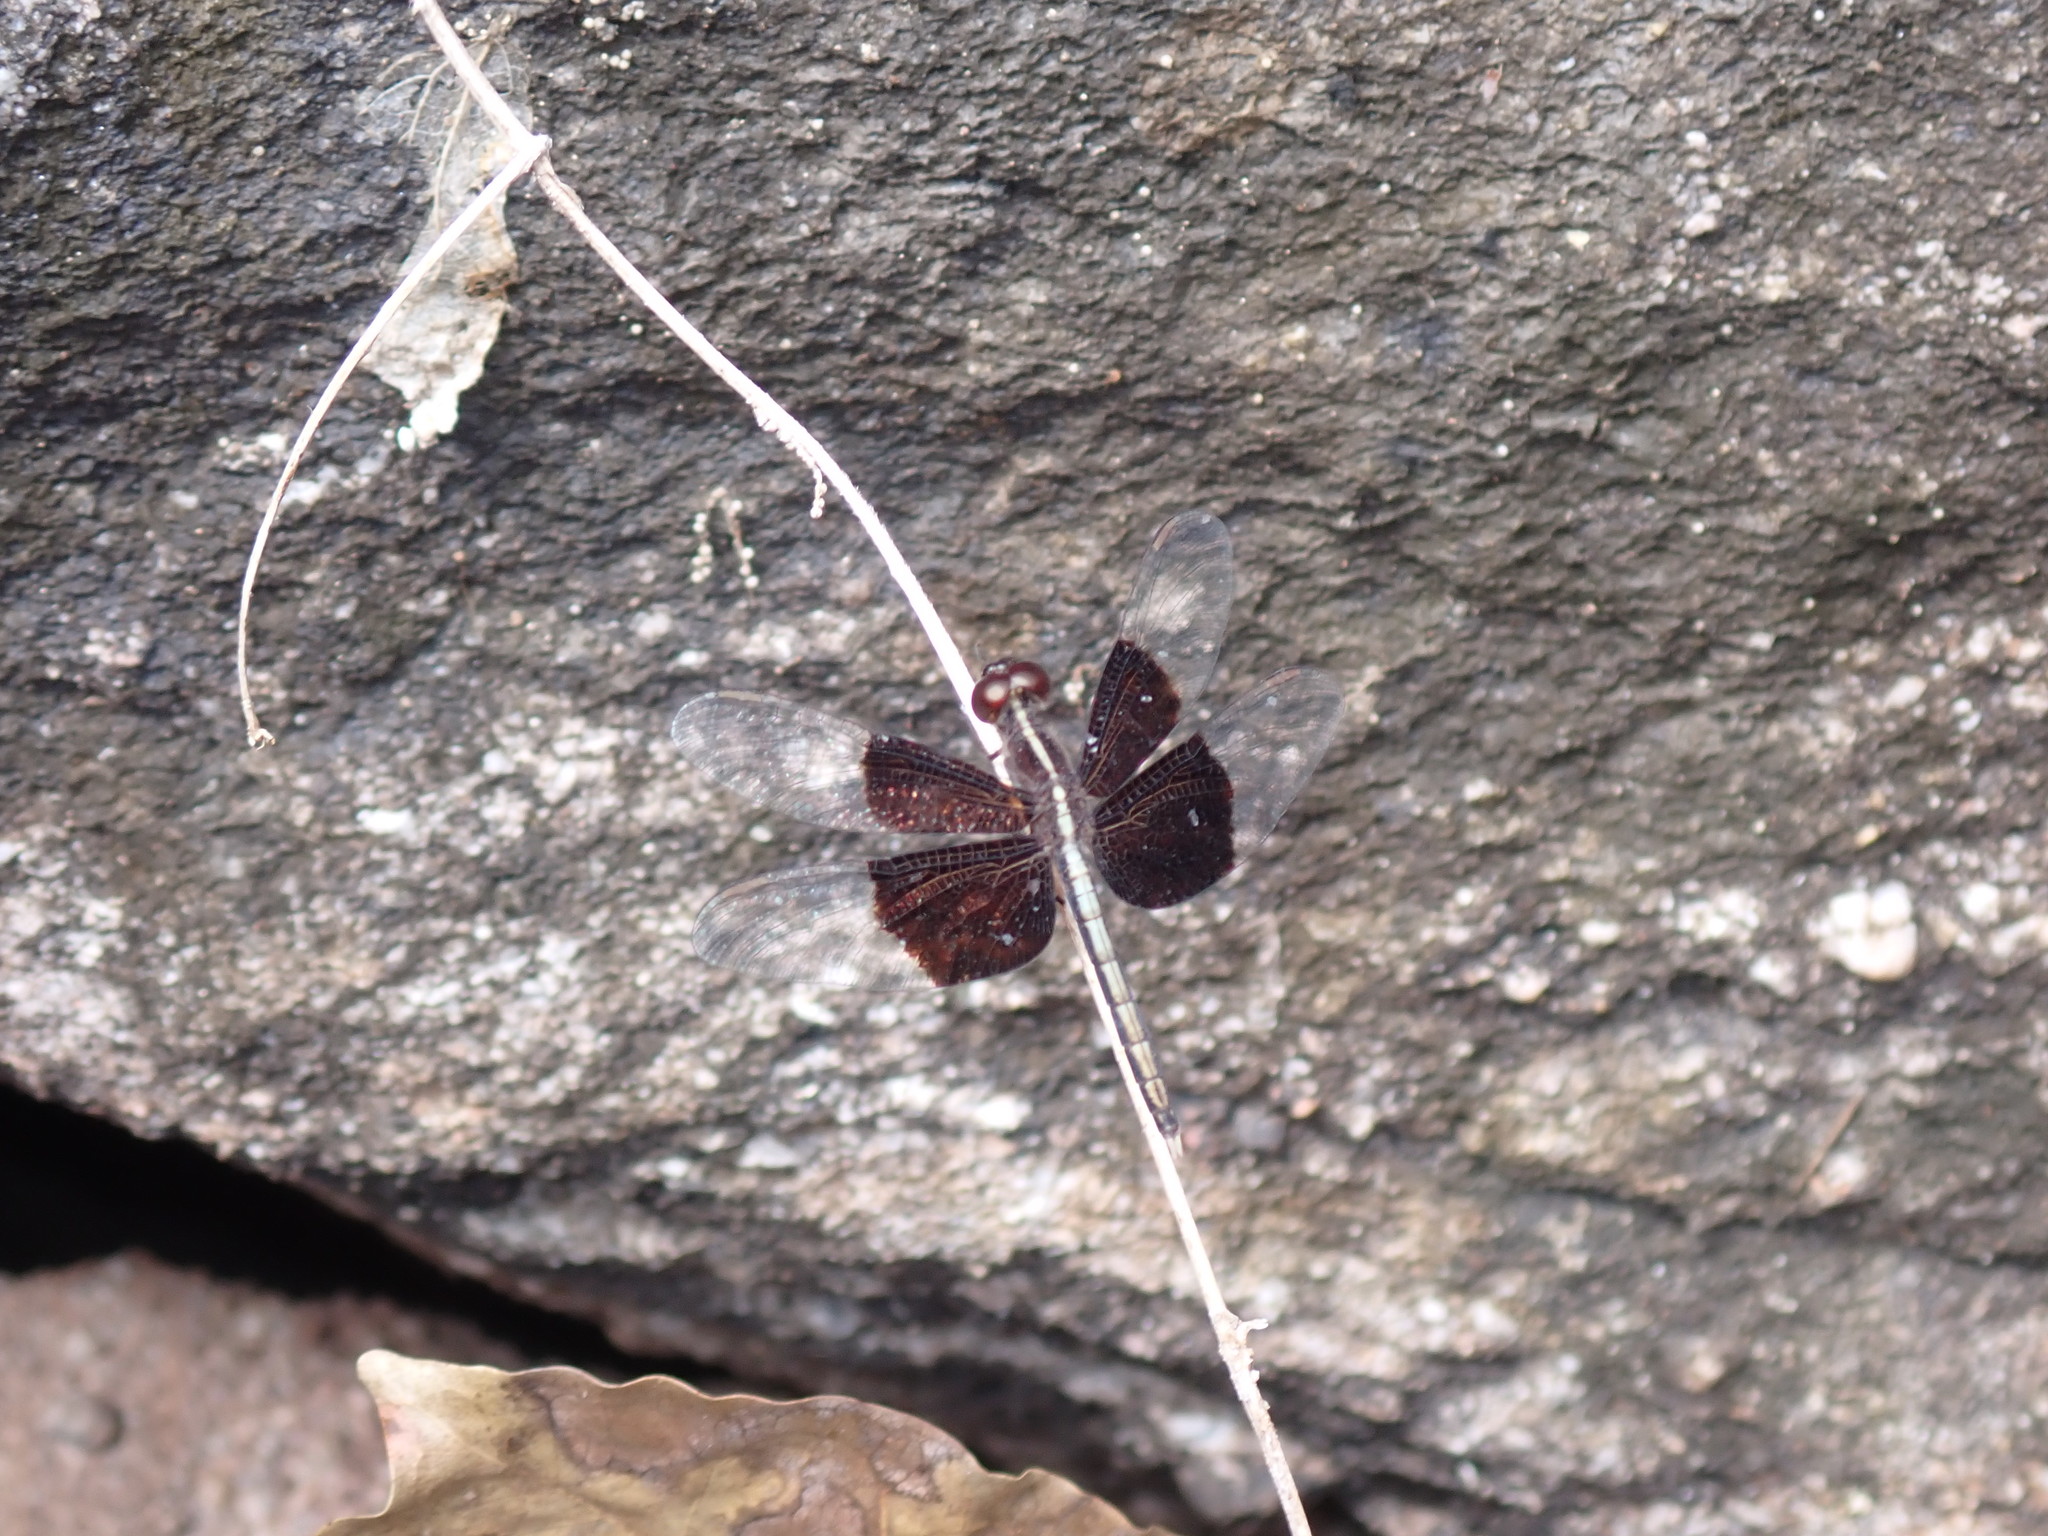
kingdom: Animalia
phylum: Arthropoda
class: Insecta
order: Odonata
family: Libellulidae
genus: Neurothemis
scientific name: Neurothemis tullia
